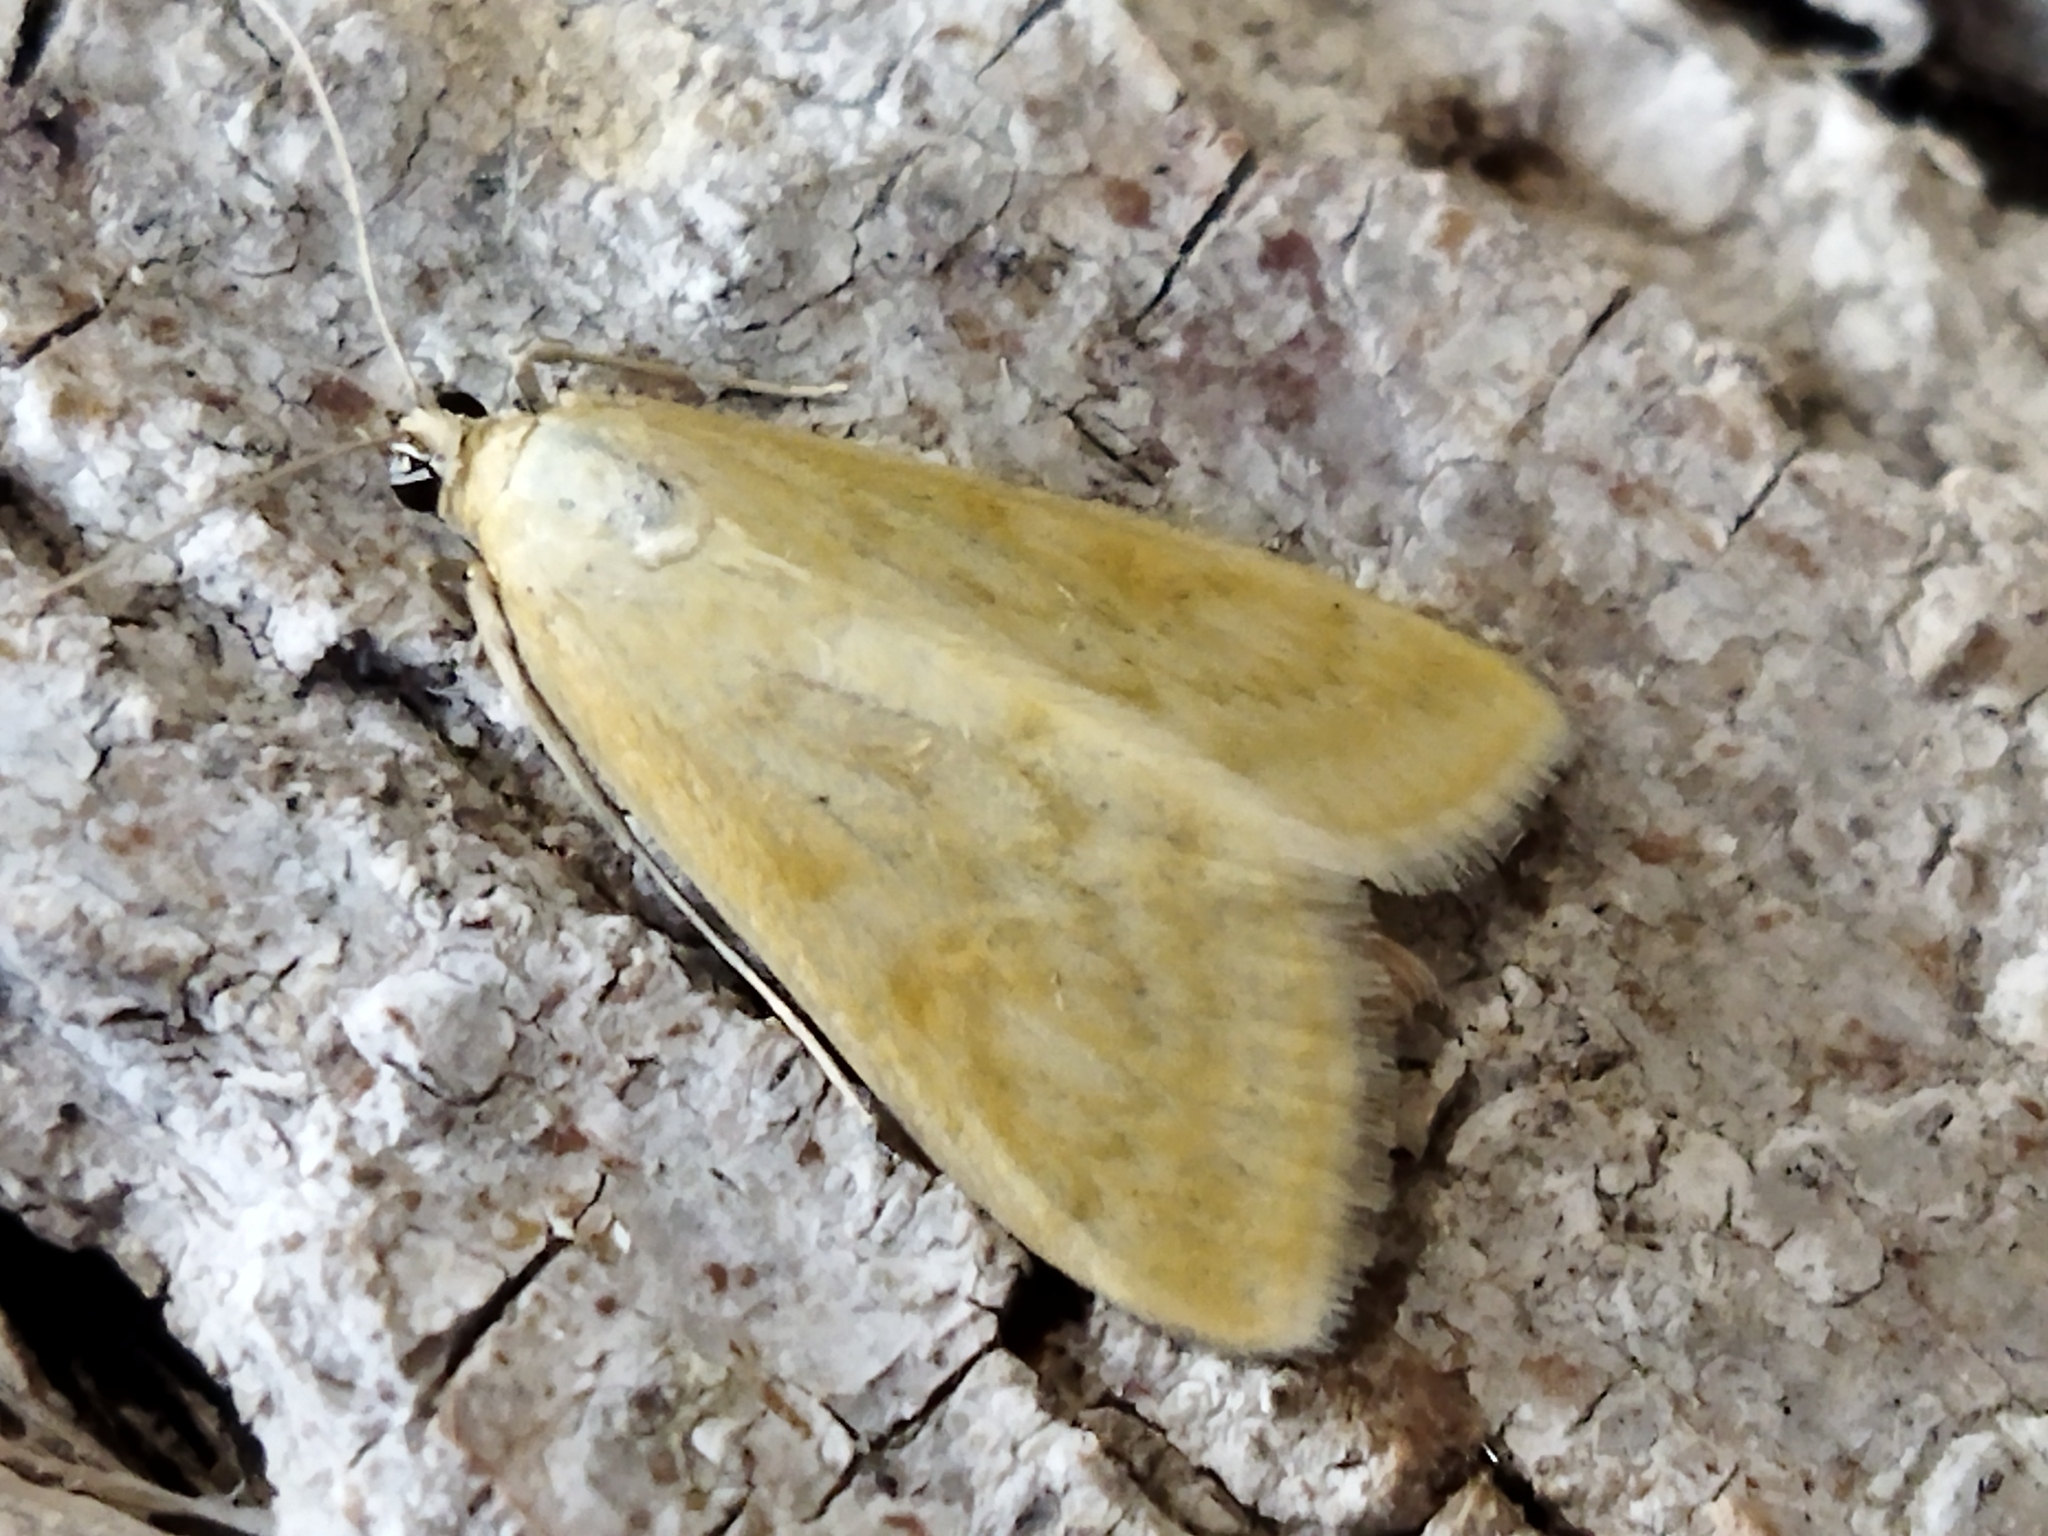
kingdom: Animalia
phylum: Arthropoda
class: Insecta
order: Lepidoptera
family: Crambidae
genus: Sitochroa
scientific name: Sitochroa verticalis
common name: Lesser pearl
